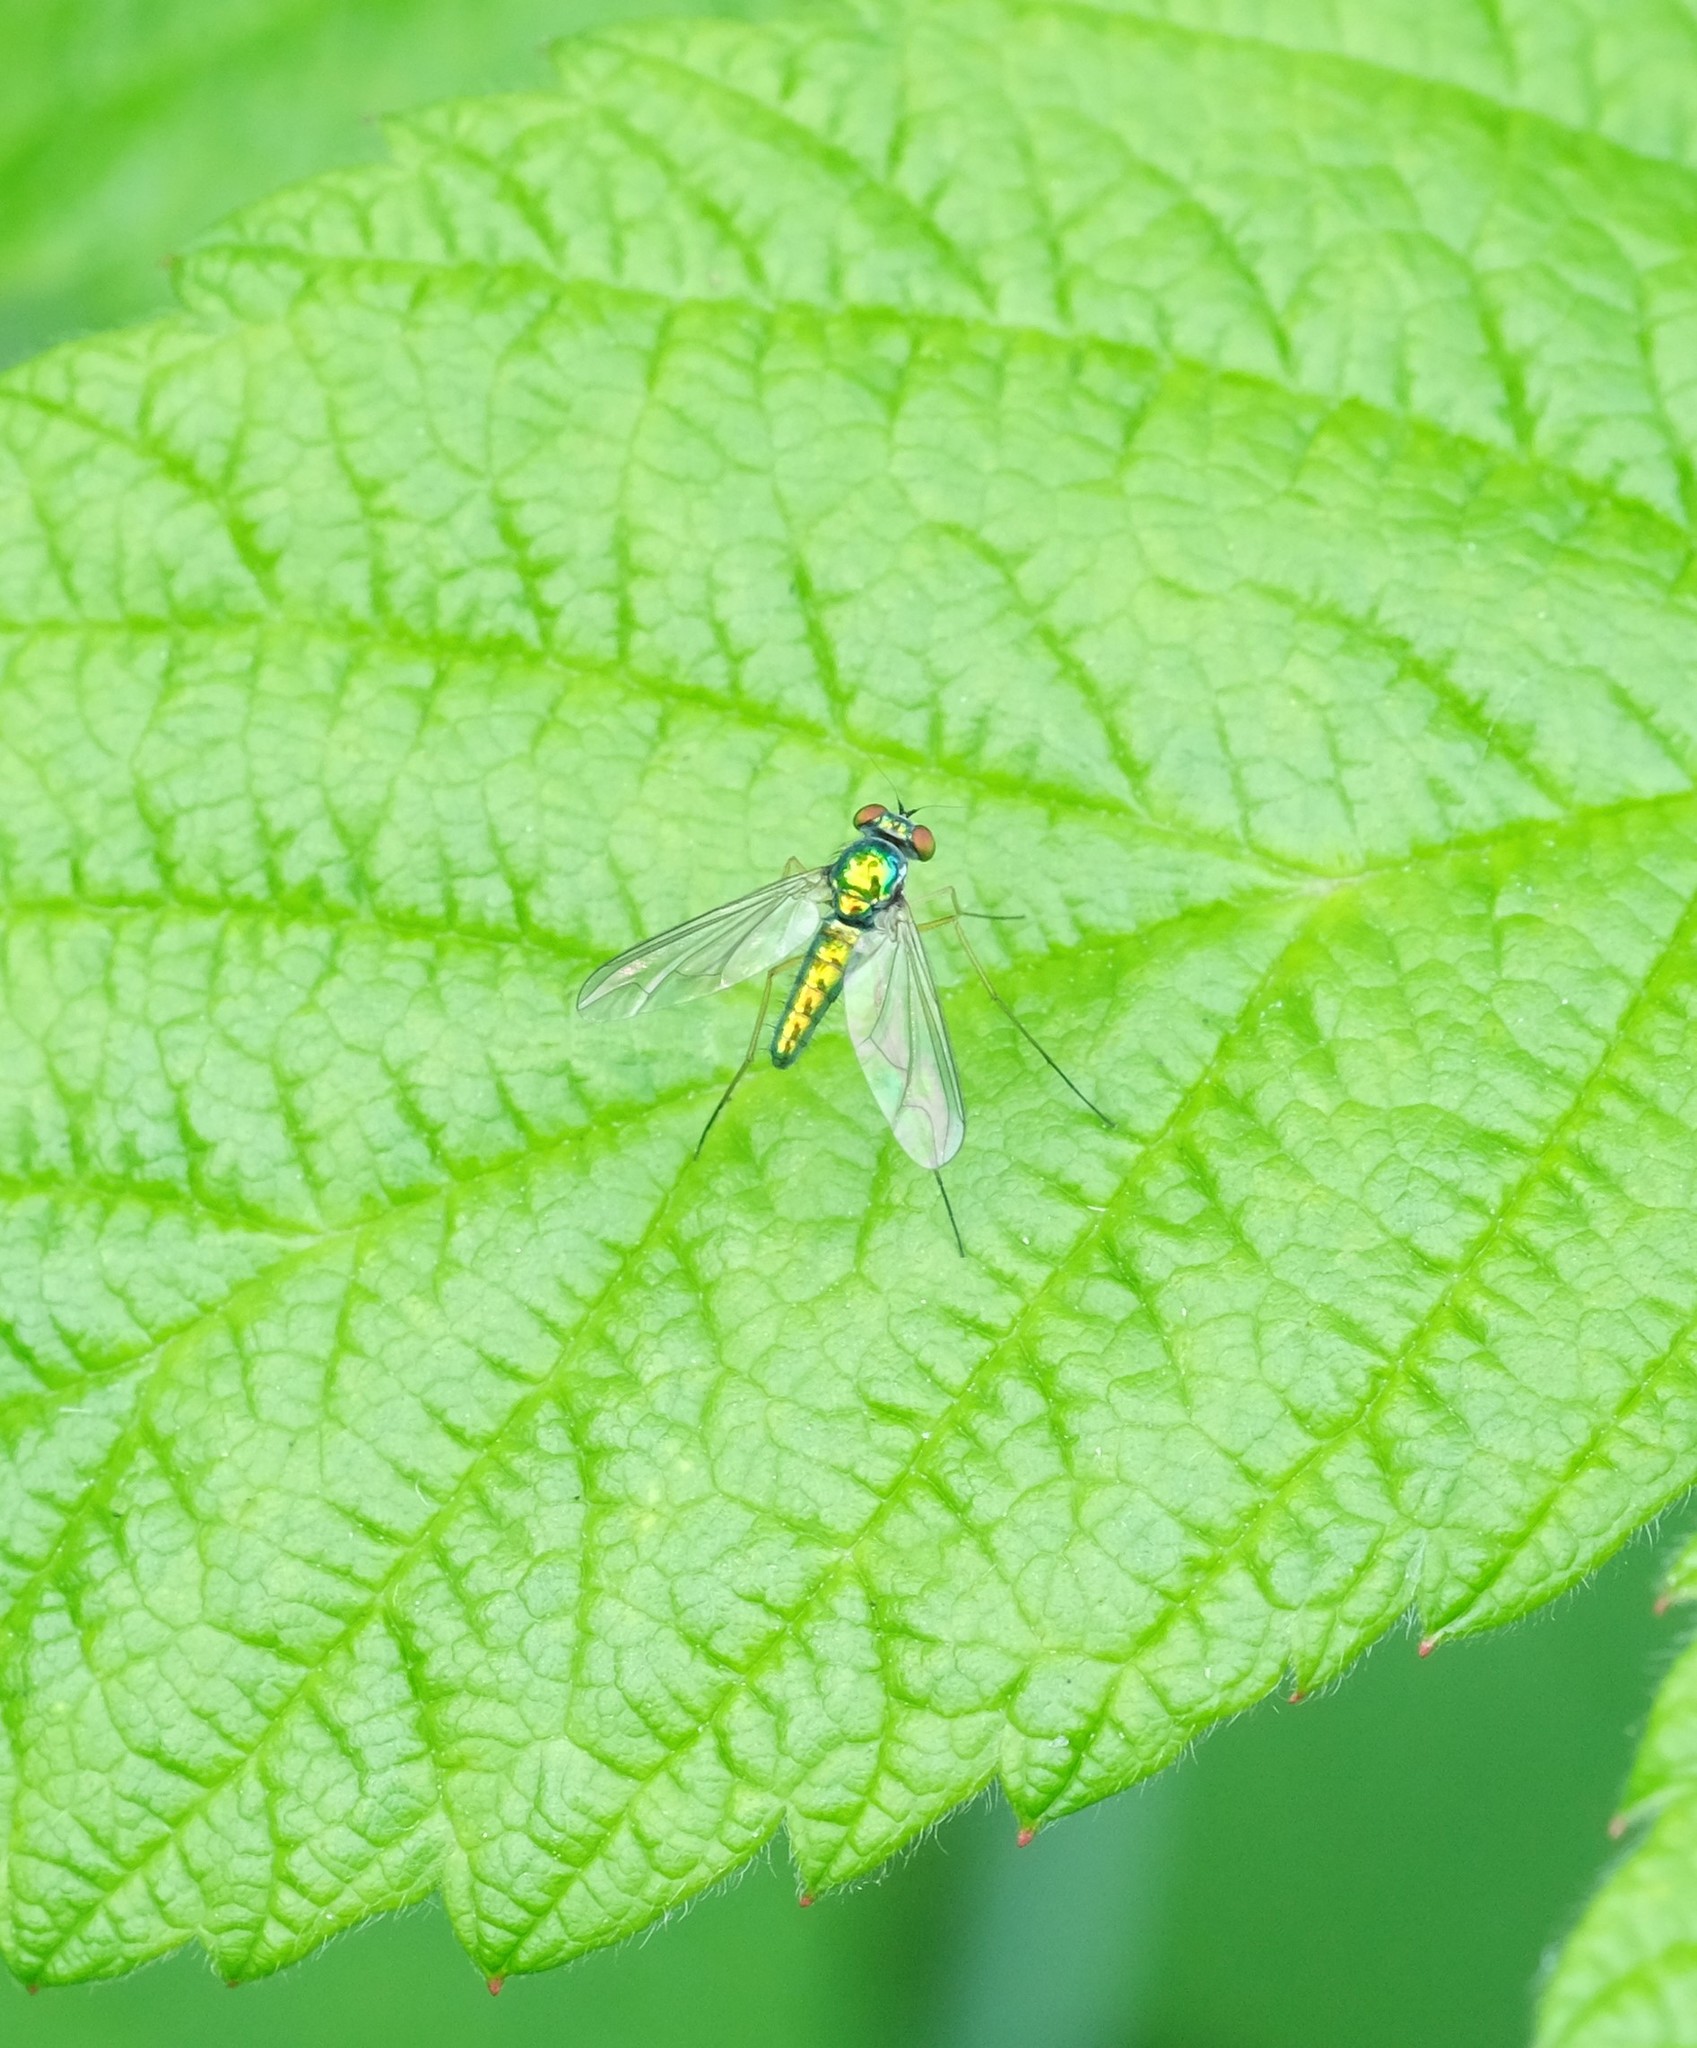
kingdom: Animalia
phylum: Arthropoda
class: Insecta
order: Diptera
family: Dolichopodidae
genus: Amblypsilopus
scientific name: Amblypsilopus scintillans
